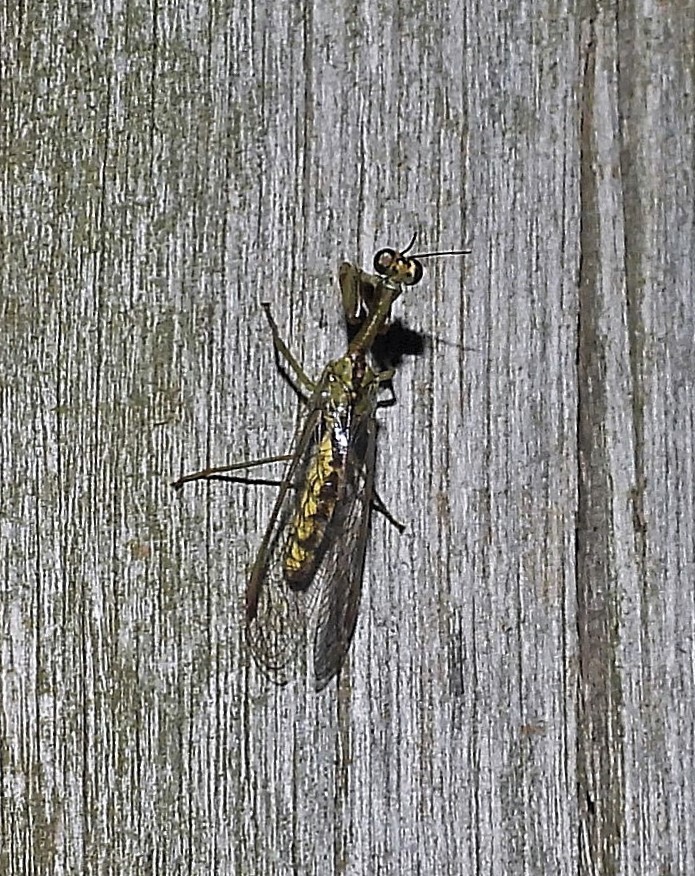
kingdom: Animalia
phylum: Arthropoda
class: Insecta
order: Neuroptera
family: Mantispidae
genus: Paramantispa
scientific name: Paramantispa wagneri
